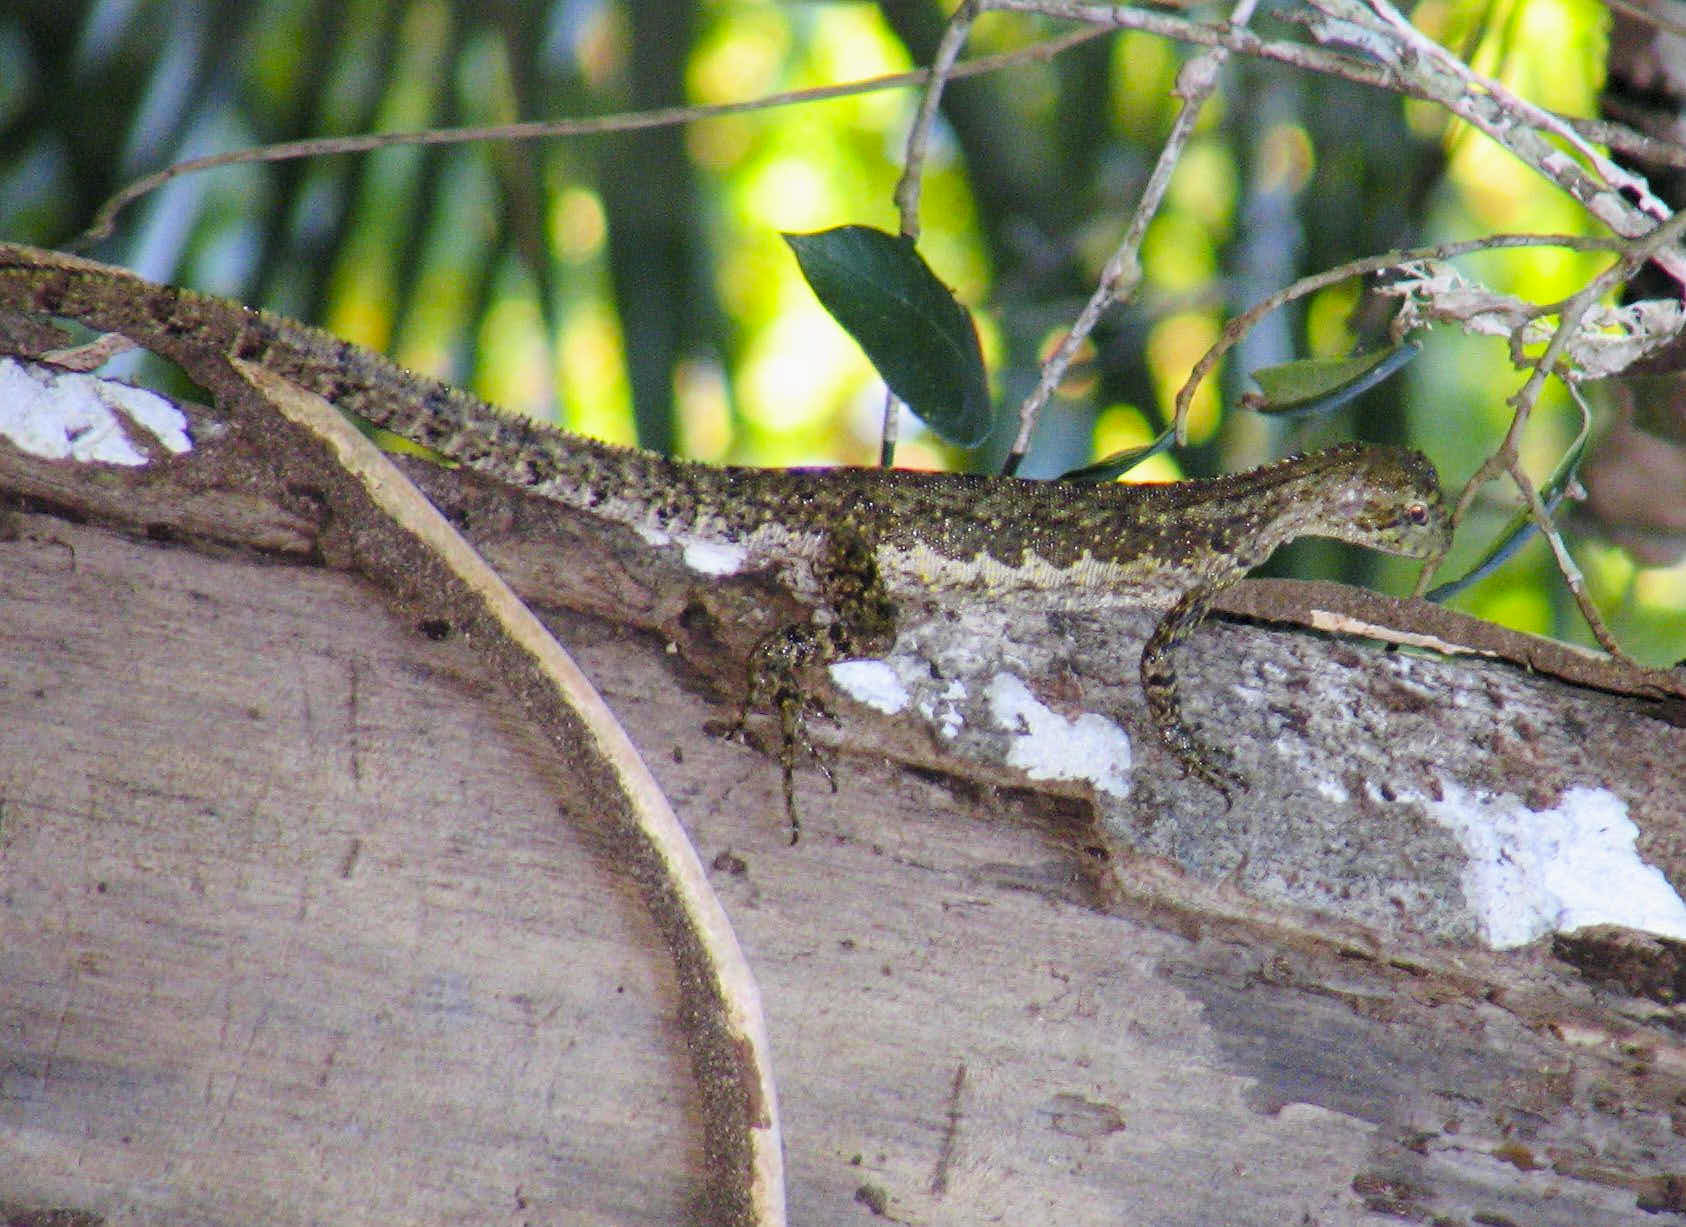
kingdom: Animalia
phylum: Chordata
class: Squamata
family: Tropiduridae
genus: Uranoscodon
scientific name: Uranoscodon superciliosus
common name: Mophead iguana
